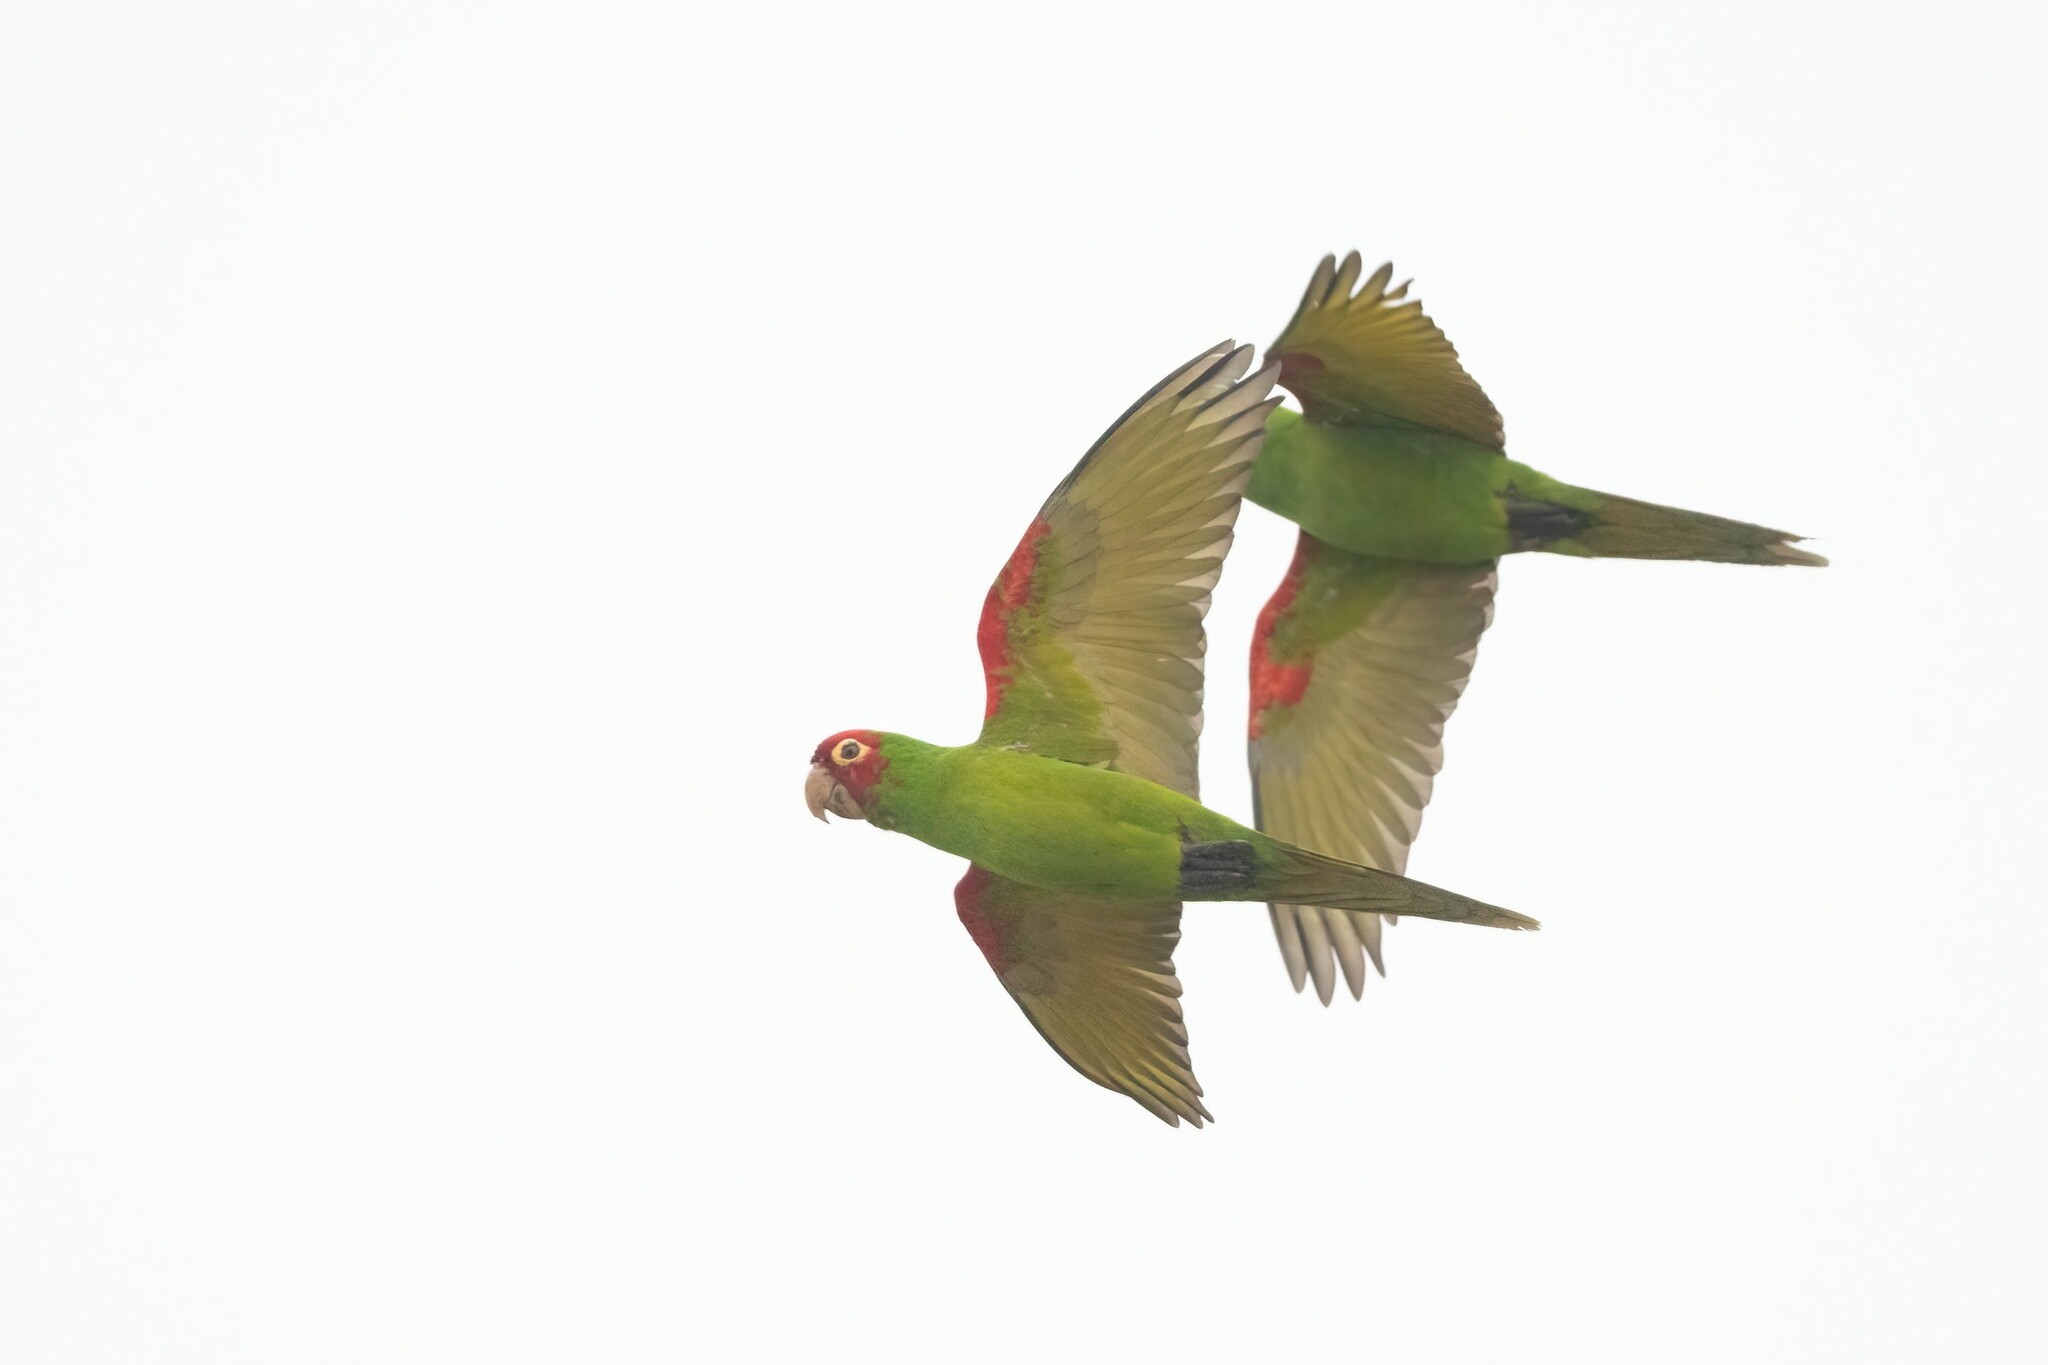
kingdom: Animalia
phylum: Chordata
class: Aves
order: Psittaciformes
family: Psittacidae
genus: Aratinga
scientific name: Aratinga erythrogenys
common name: Red-masked parakeet
